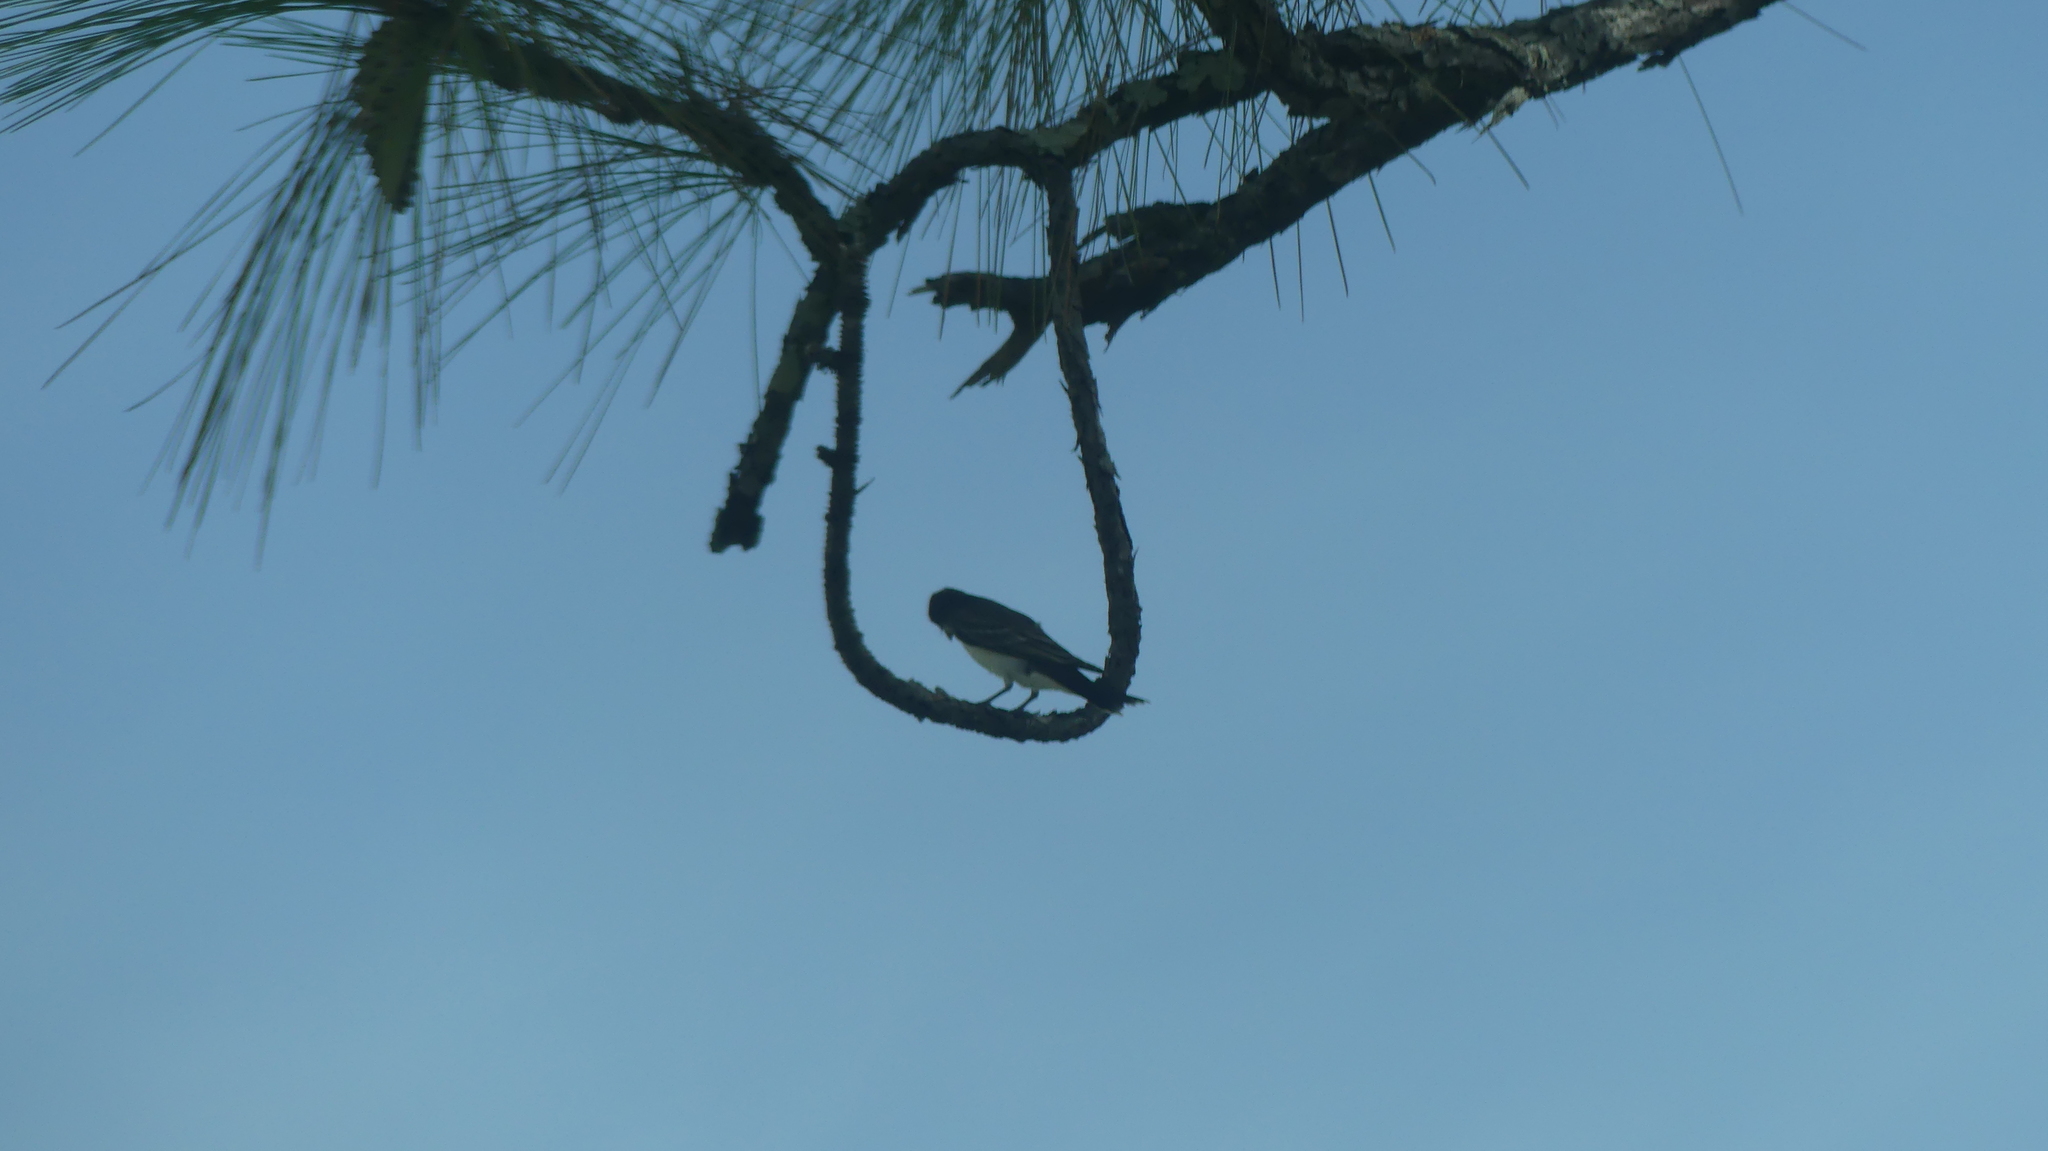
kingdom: Animalia
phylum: Chordata
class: Aves
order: Passeriformes
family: Tyrannidae
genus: Tyrannus
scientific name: Tyrannus tyrannus
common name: Eastern kingbird
